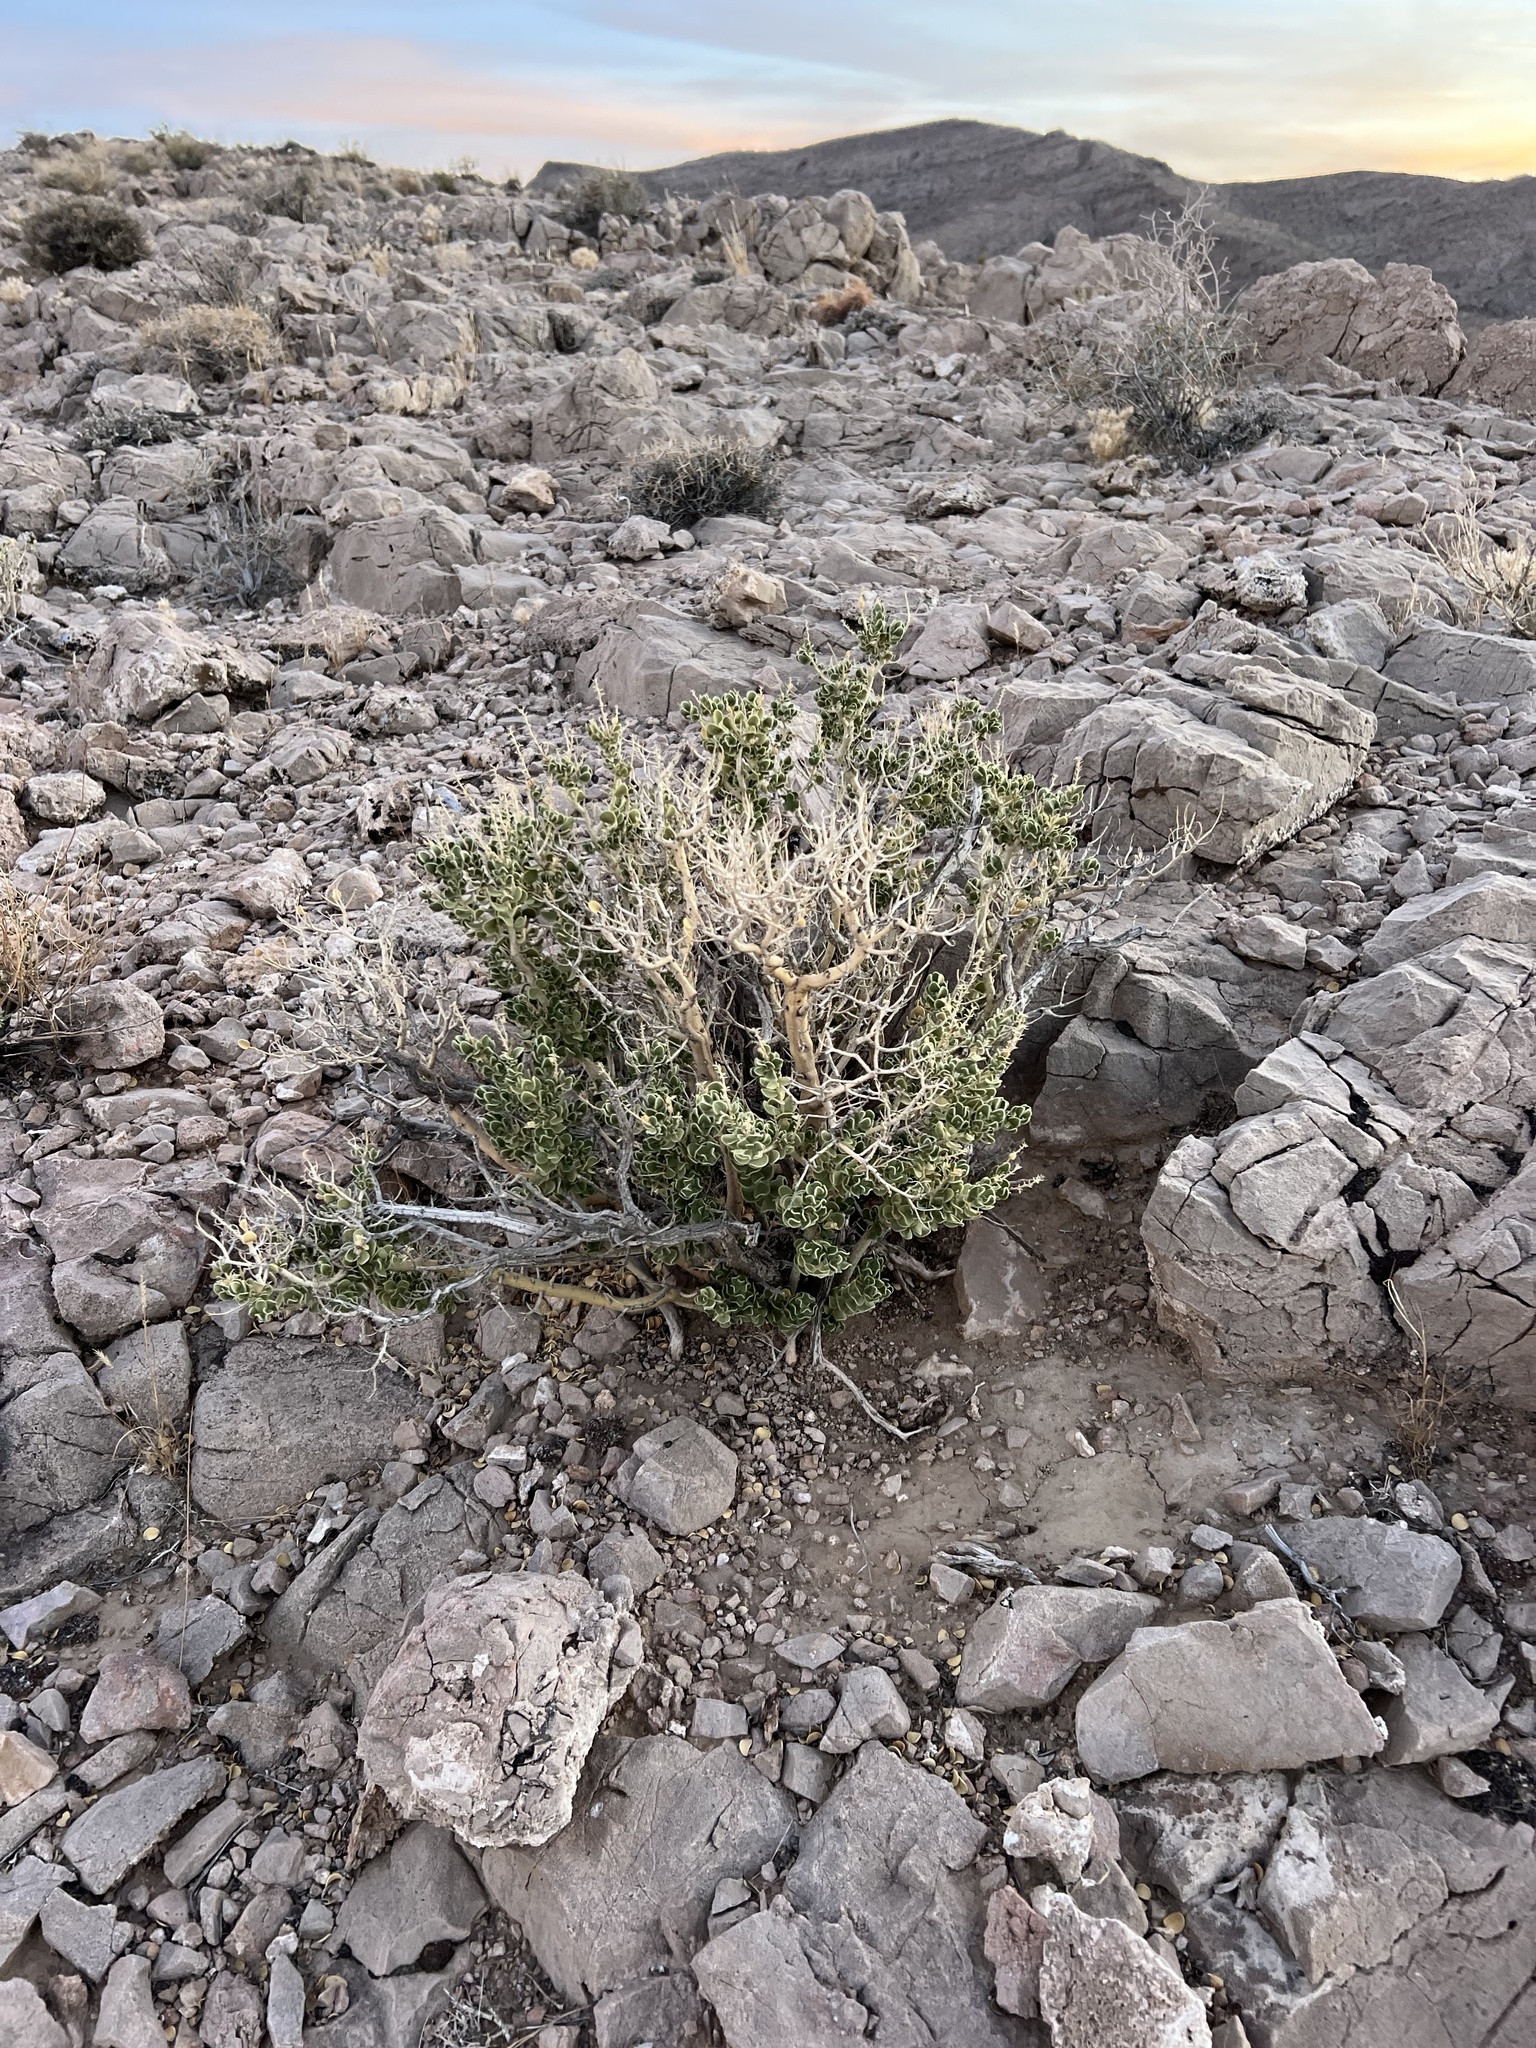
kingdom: Plantae
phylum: Tracheophyta
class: Magnoliopsida
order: Celastrales
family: Celastraceae
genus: Mortonia
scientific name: Mortonia utahensis
